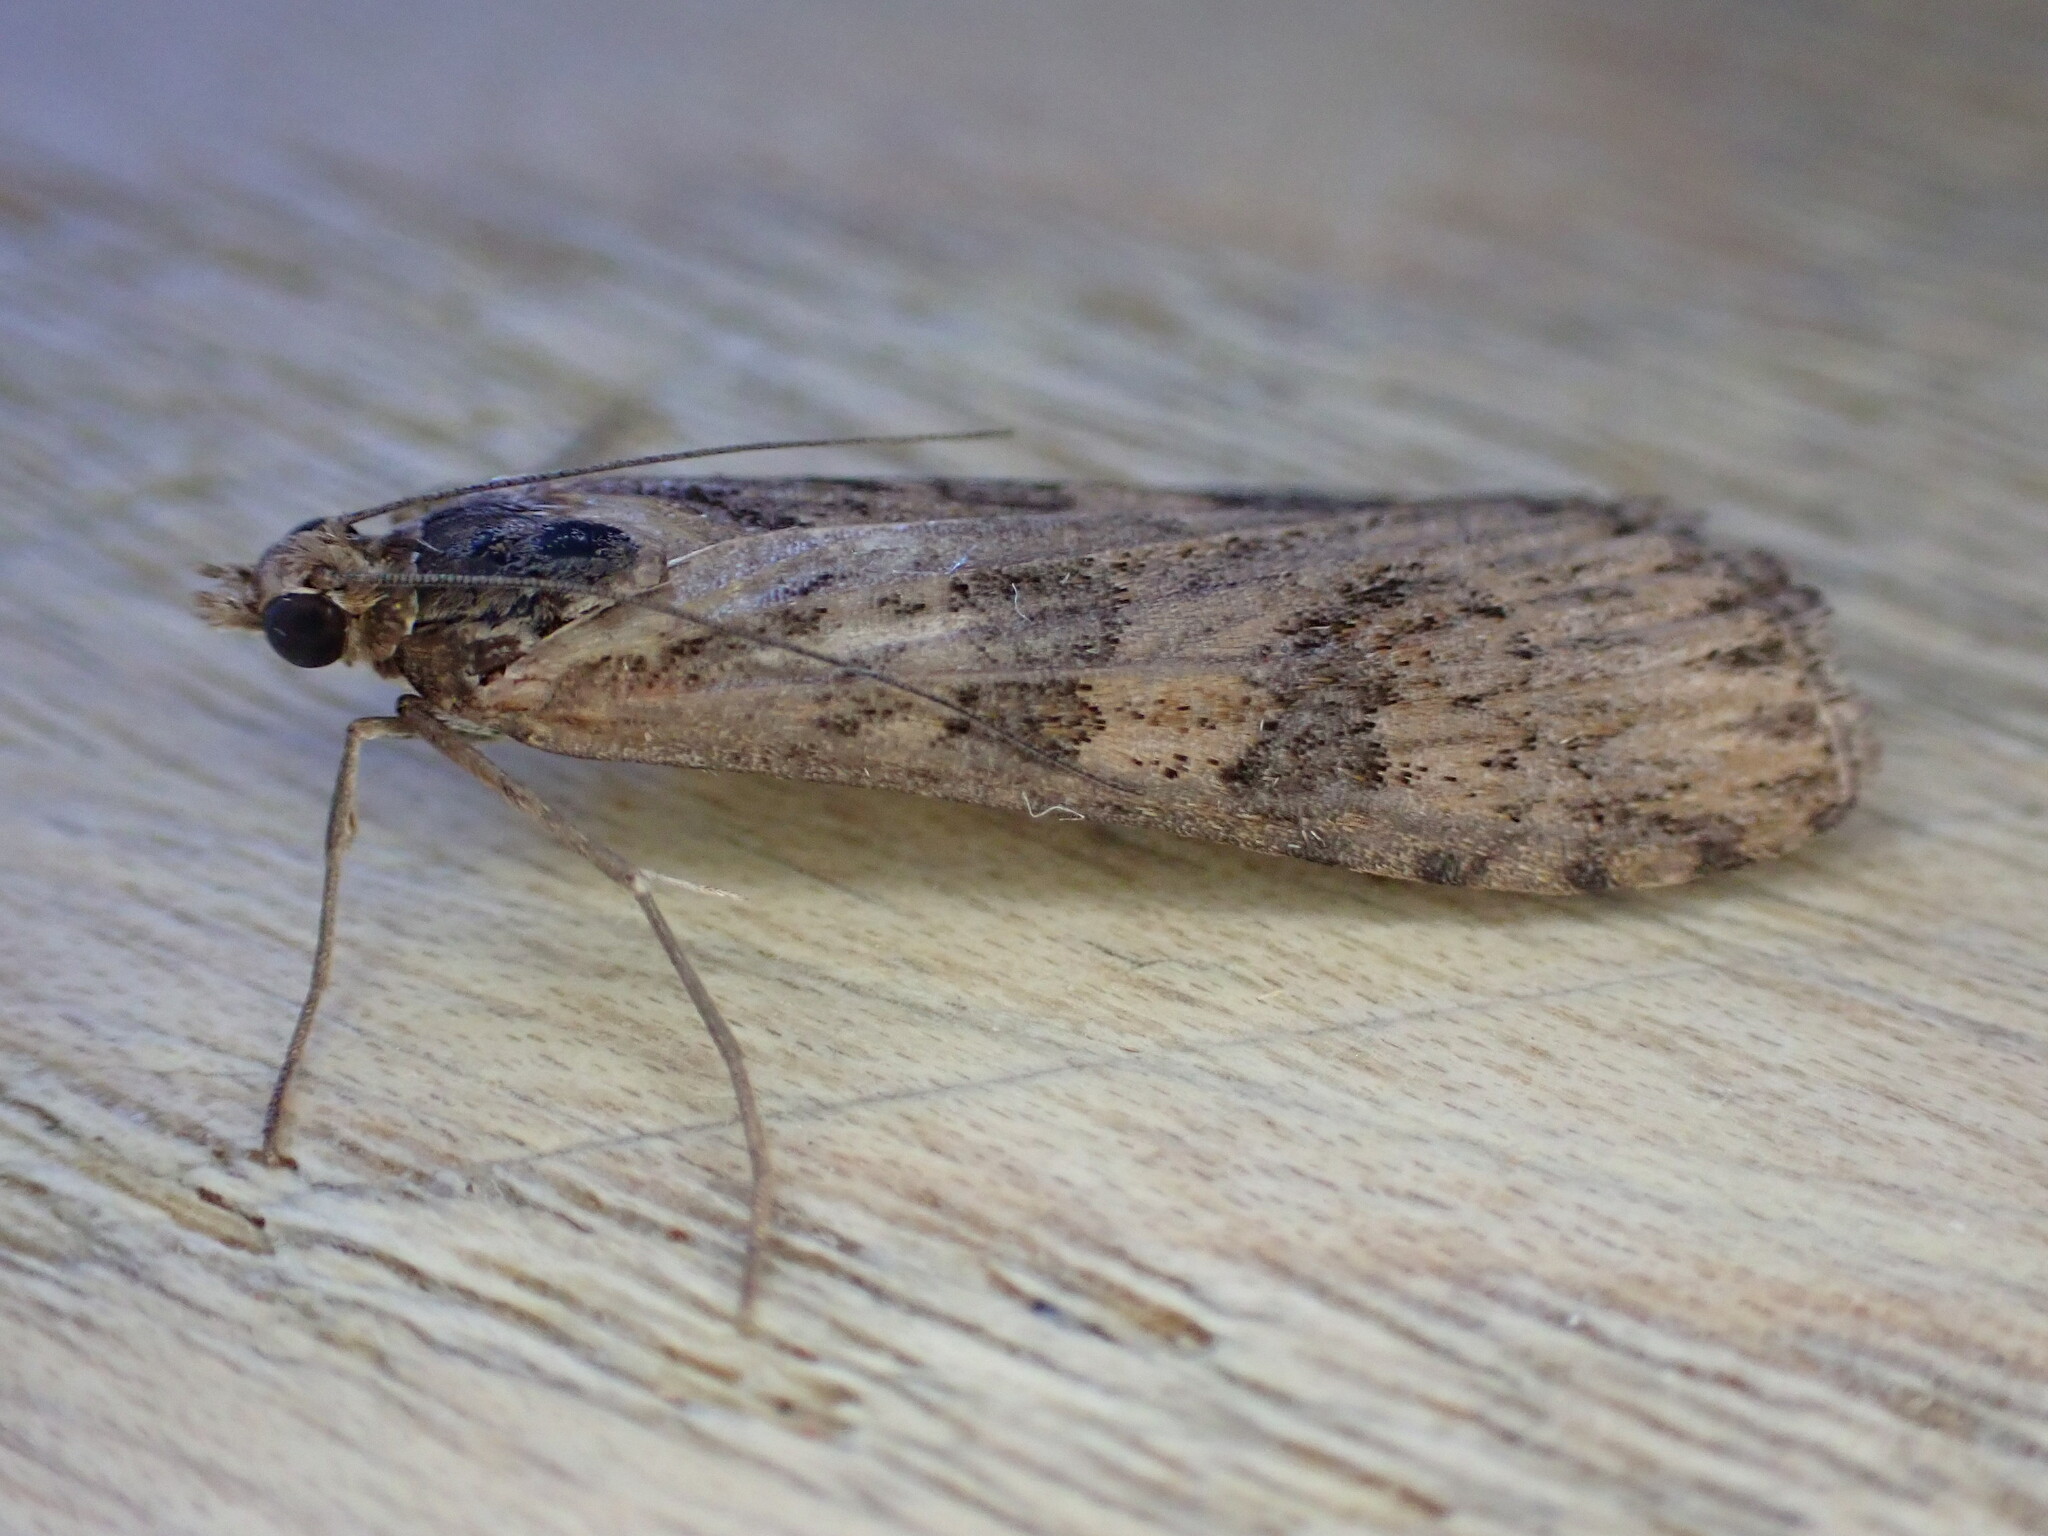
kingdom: Animalia
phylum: Arthropoda
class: Insecta
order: Lepidoptera
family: Crambidae
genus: Nomophila
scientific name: Nomophila noctuella
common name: Rush veneer
